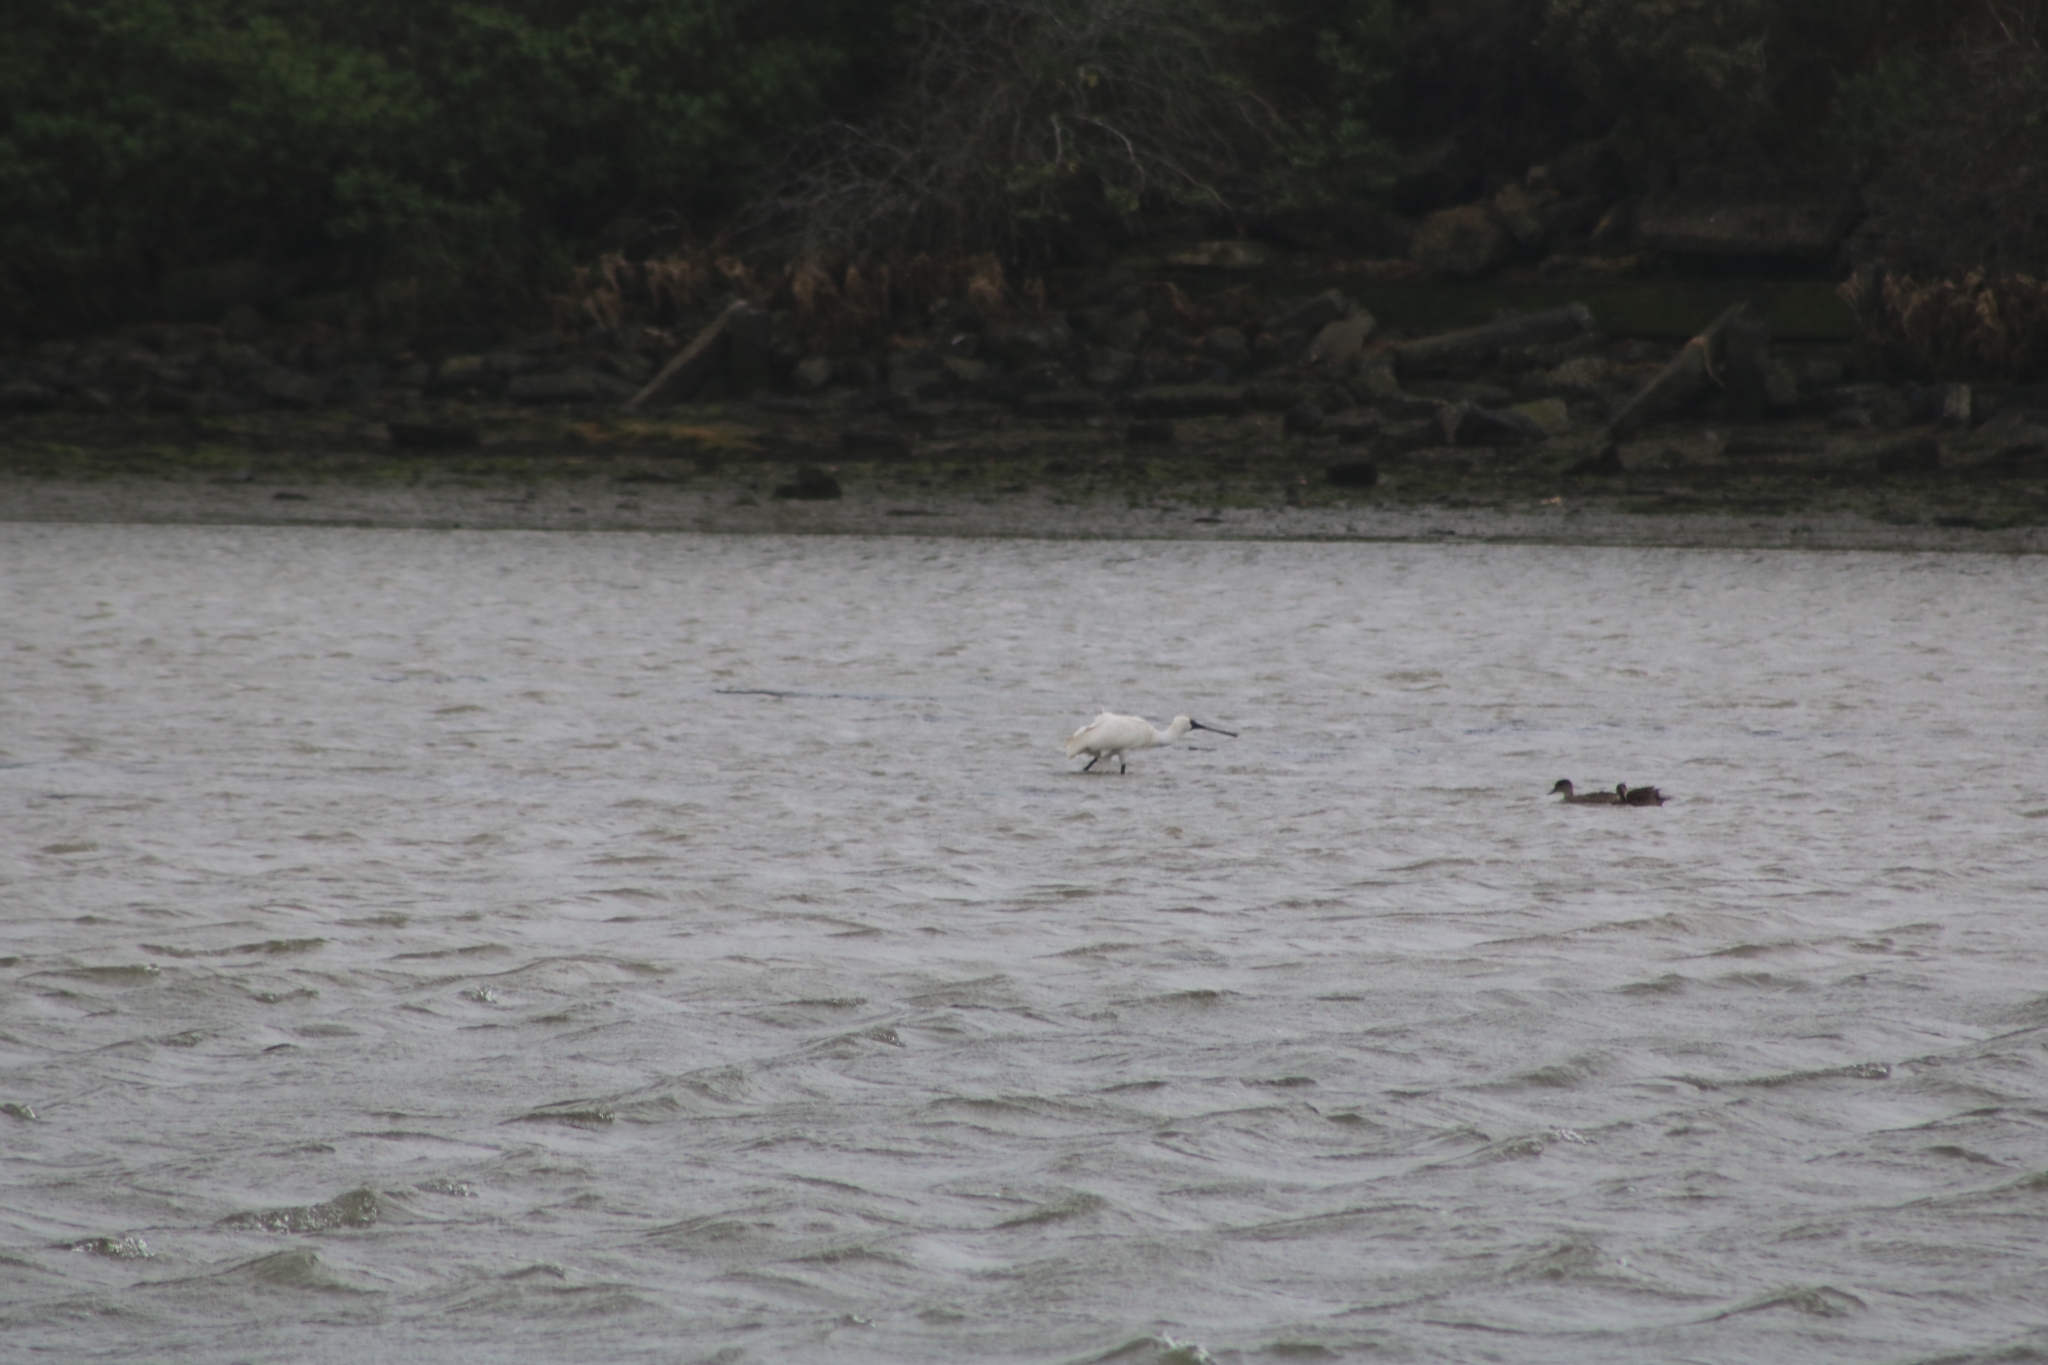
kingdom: Animalia
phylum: Chordata
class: Aves
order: Pelecaniformes
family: Threskiornithidae
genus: Platalea
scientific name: Platalea regia
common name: Royal spoonbill
